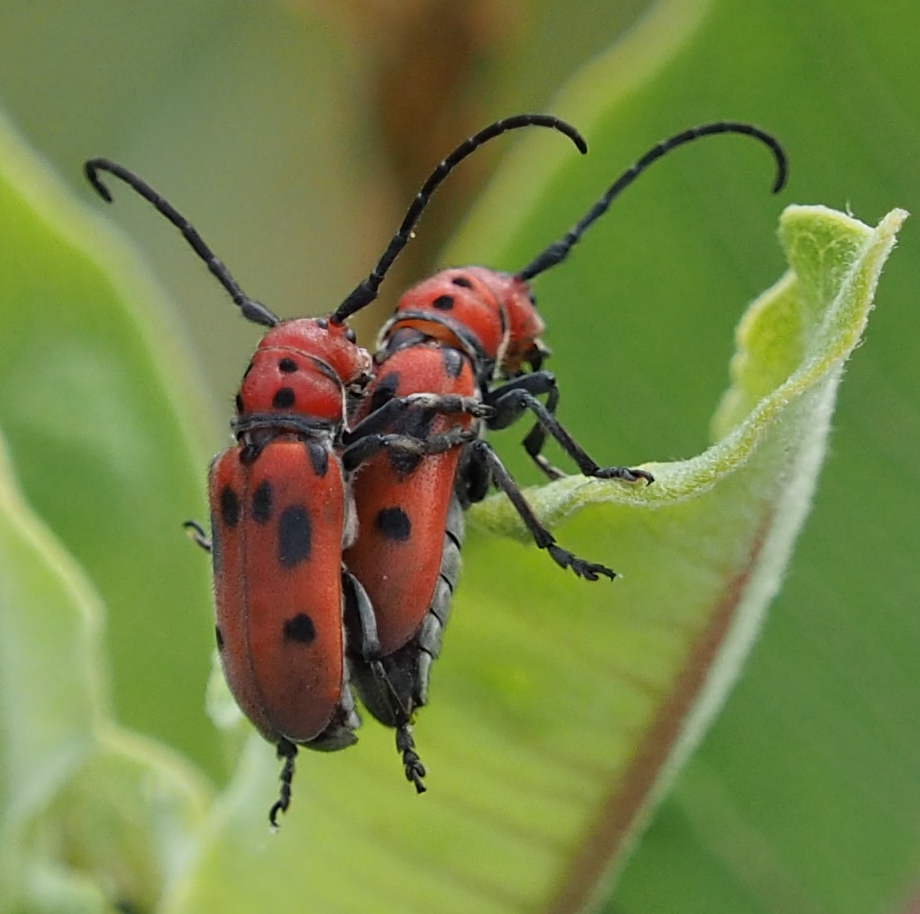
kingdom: Animalia
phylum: Arthropoda
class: Insecta
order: Coleoptera
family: Cerambycidae
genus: Tetraopes
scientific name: Tetraopes tetrophthalmus
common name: Red milkweed beetle
